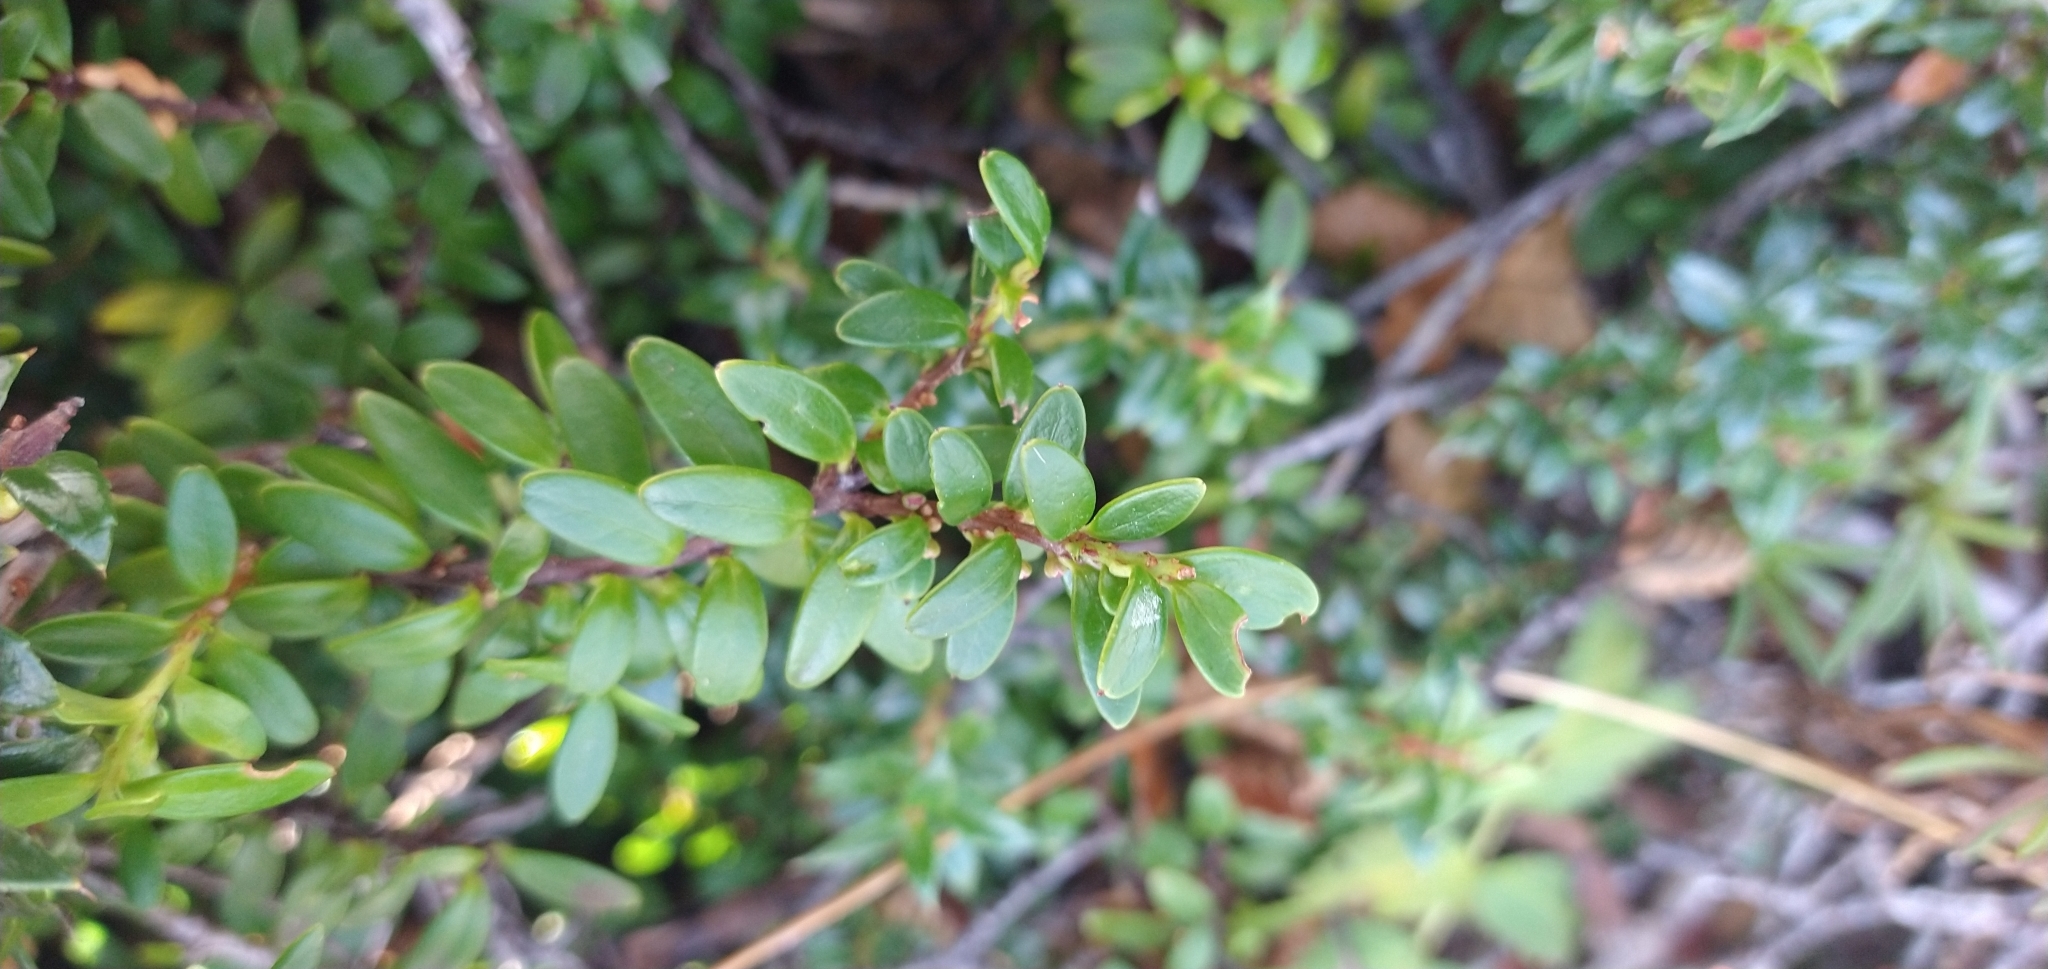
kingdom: Plantae
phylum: Tracheophyta
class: Magnoliopsida
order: Celastrales
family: Celastraceae
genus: Maytenus
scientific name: Maytenus disticha
